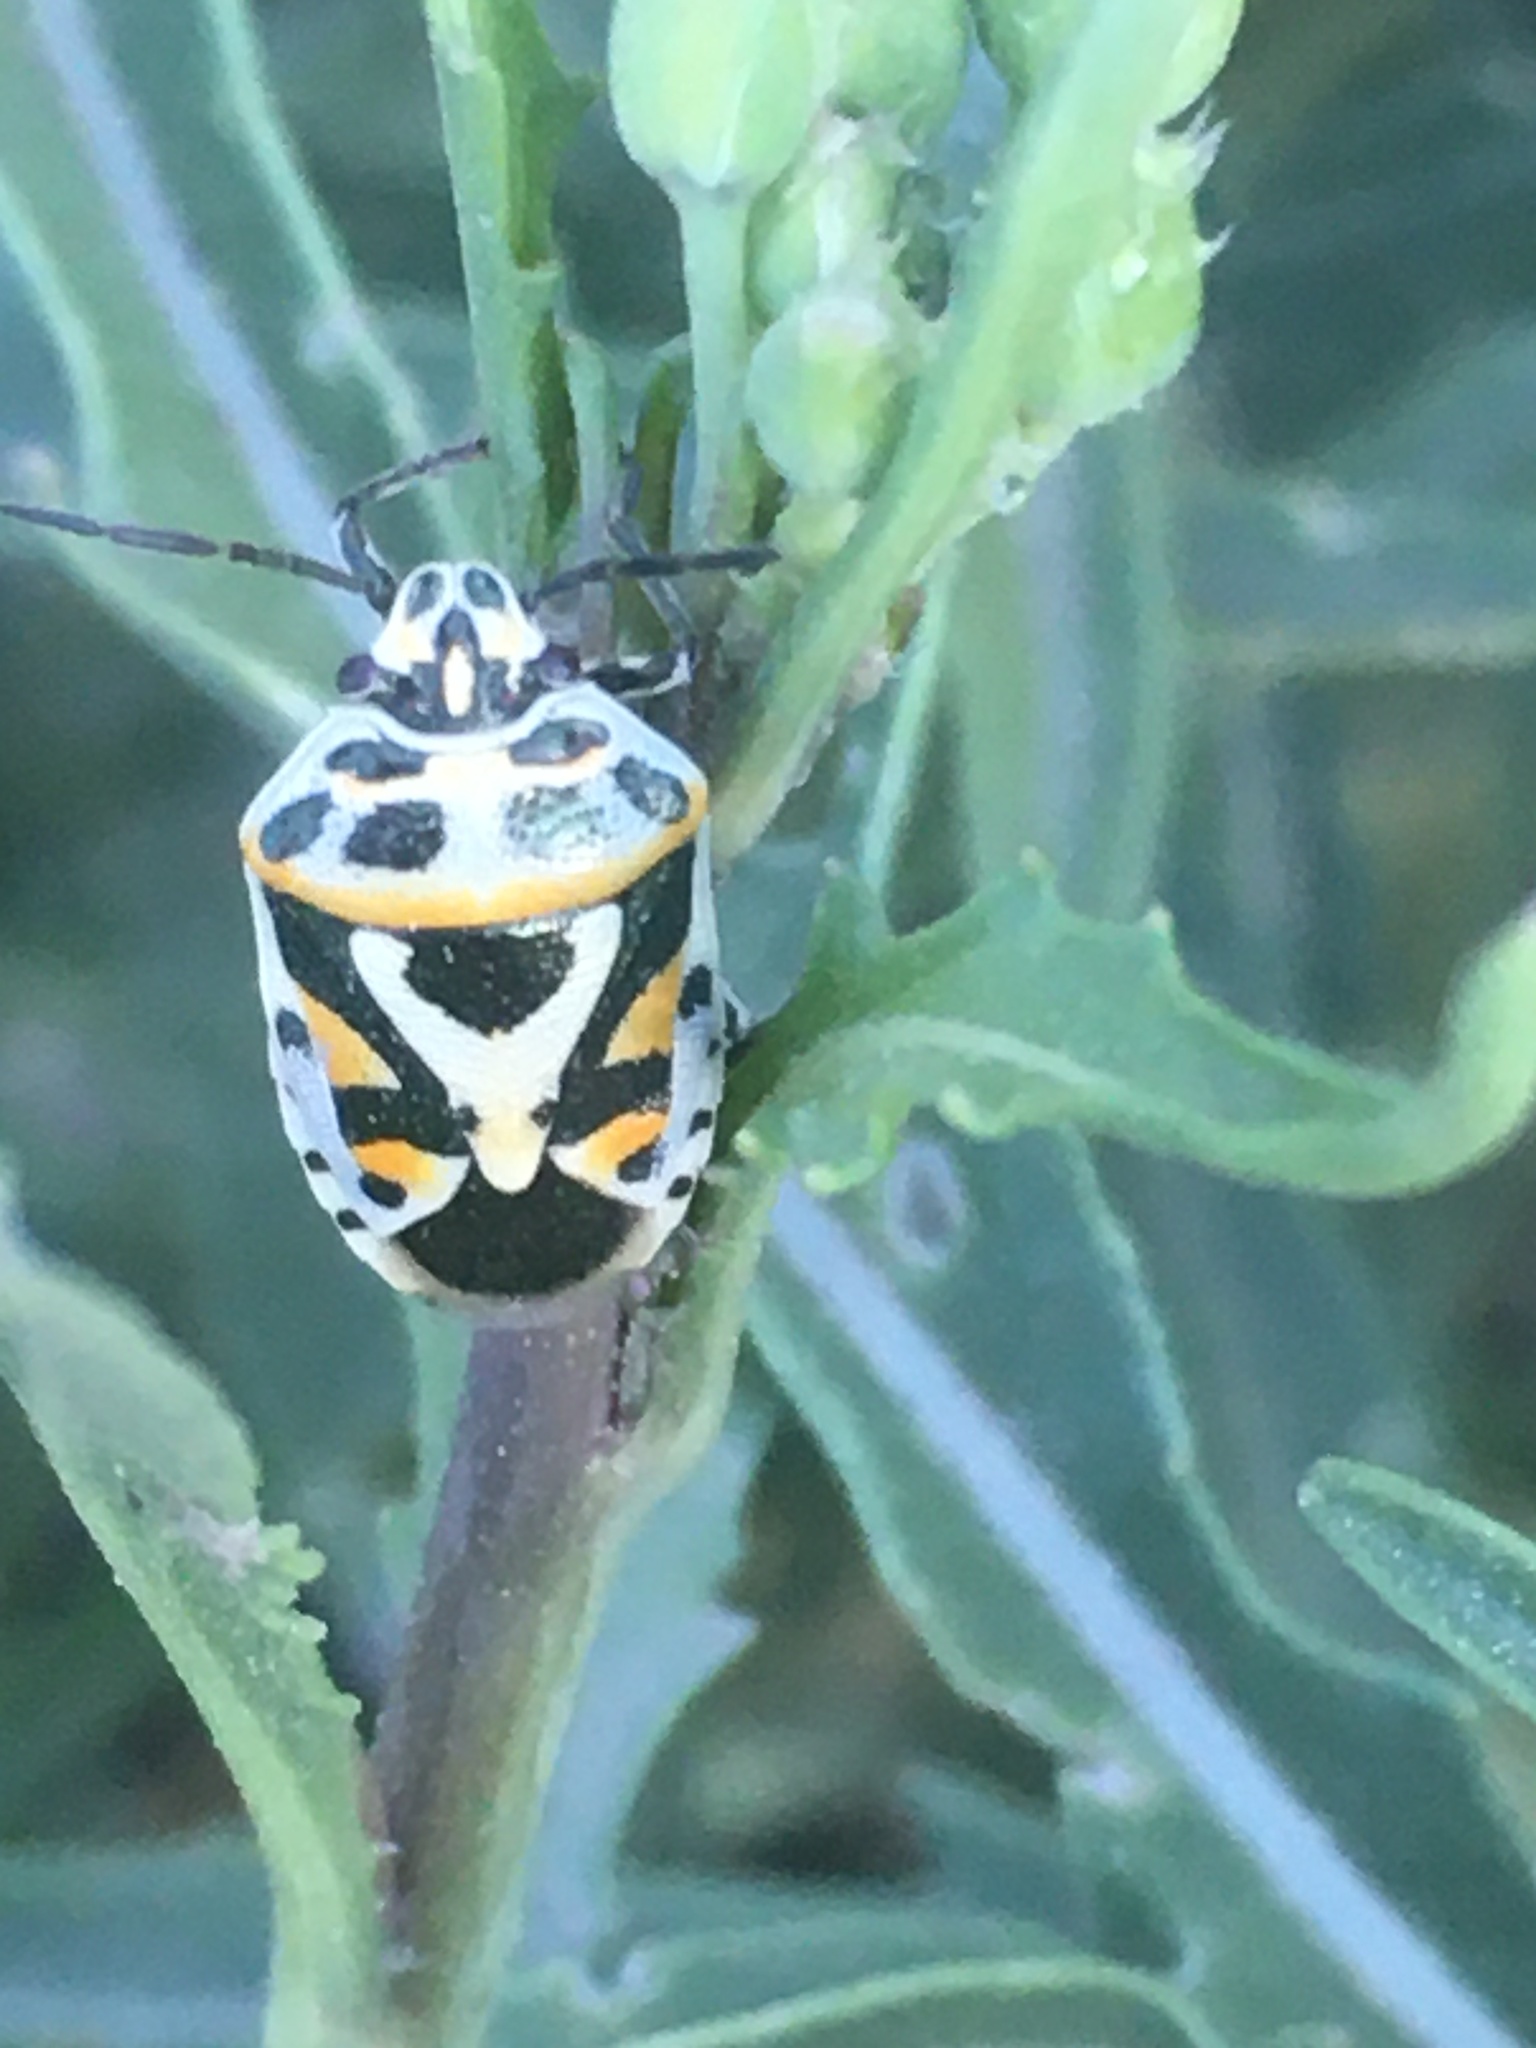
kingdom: Animalia
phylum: Arthropoda
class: Insecta
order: Hemiptera
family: Pentatomidae
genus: Eurydema
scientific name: Eurydema ornata
